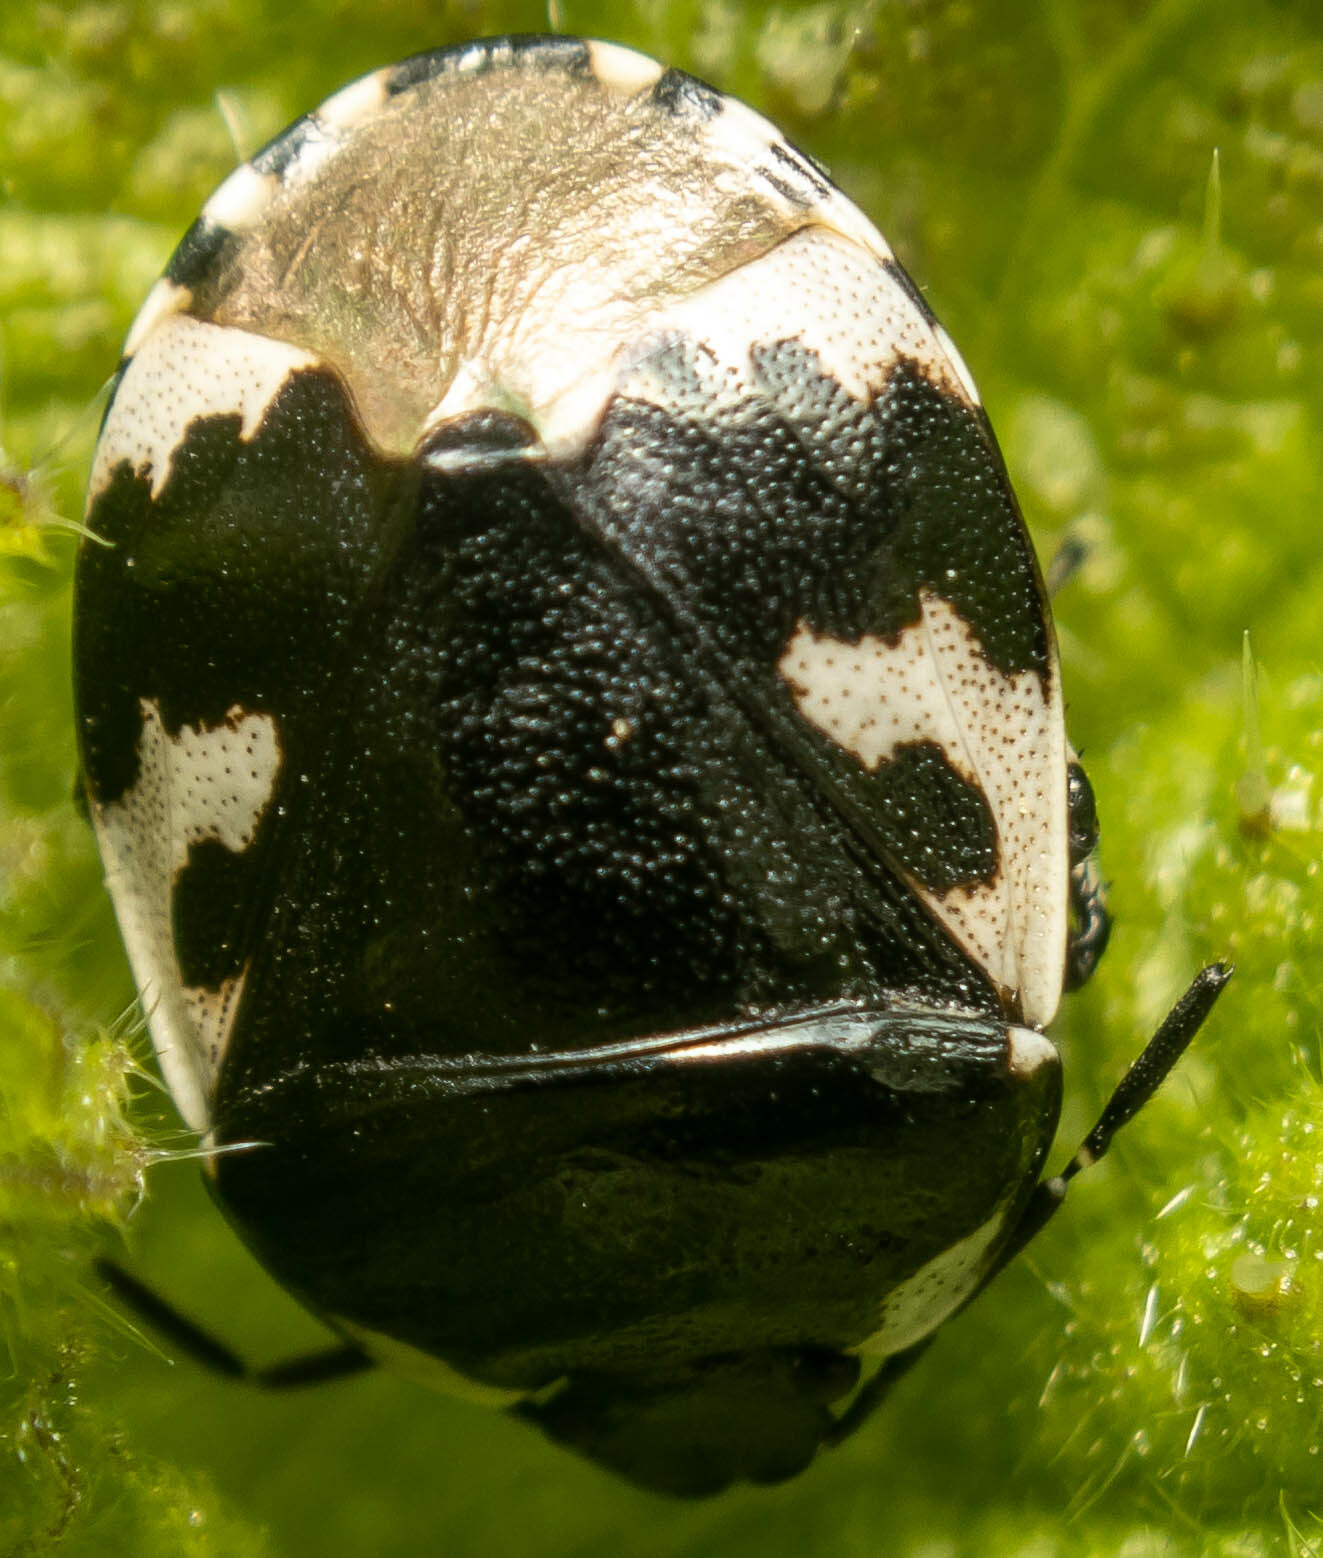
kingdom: Animalia
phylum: Arthropoda
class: Insecta
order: Hemiptera
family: Cydnidae
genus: Tritomegas
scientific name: Tritomegas bicolor
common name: Pied shieldbug
